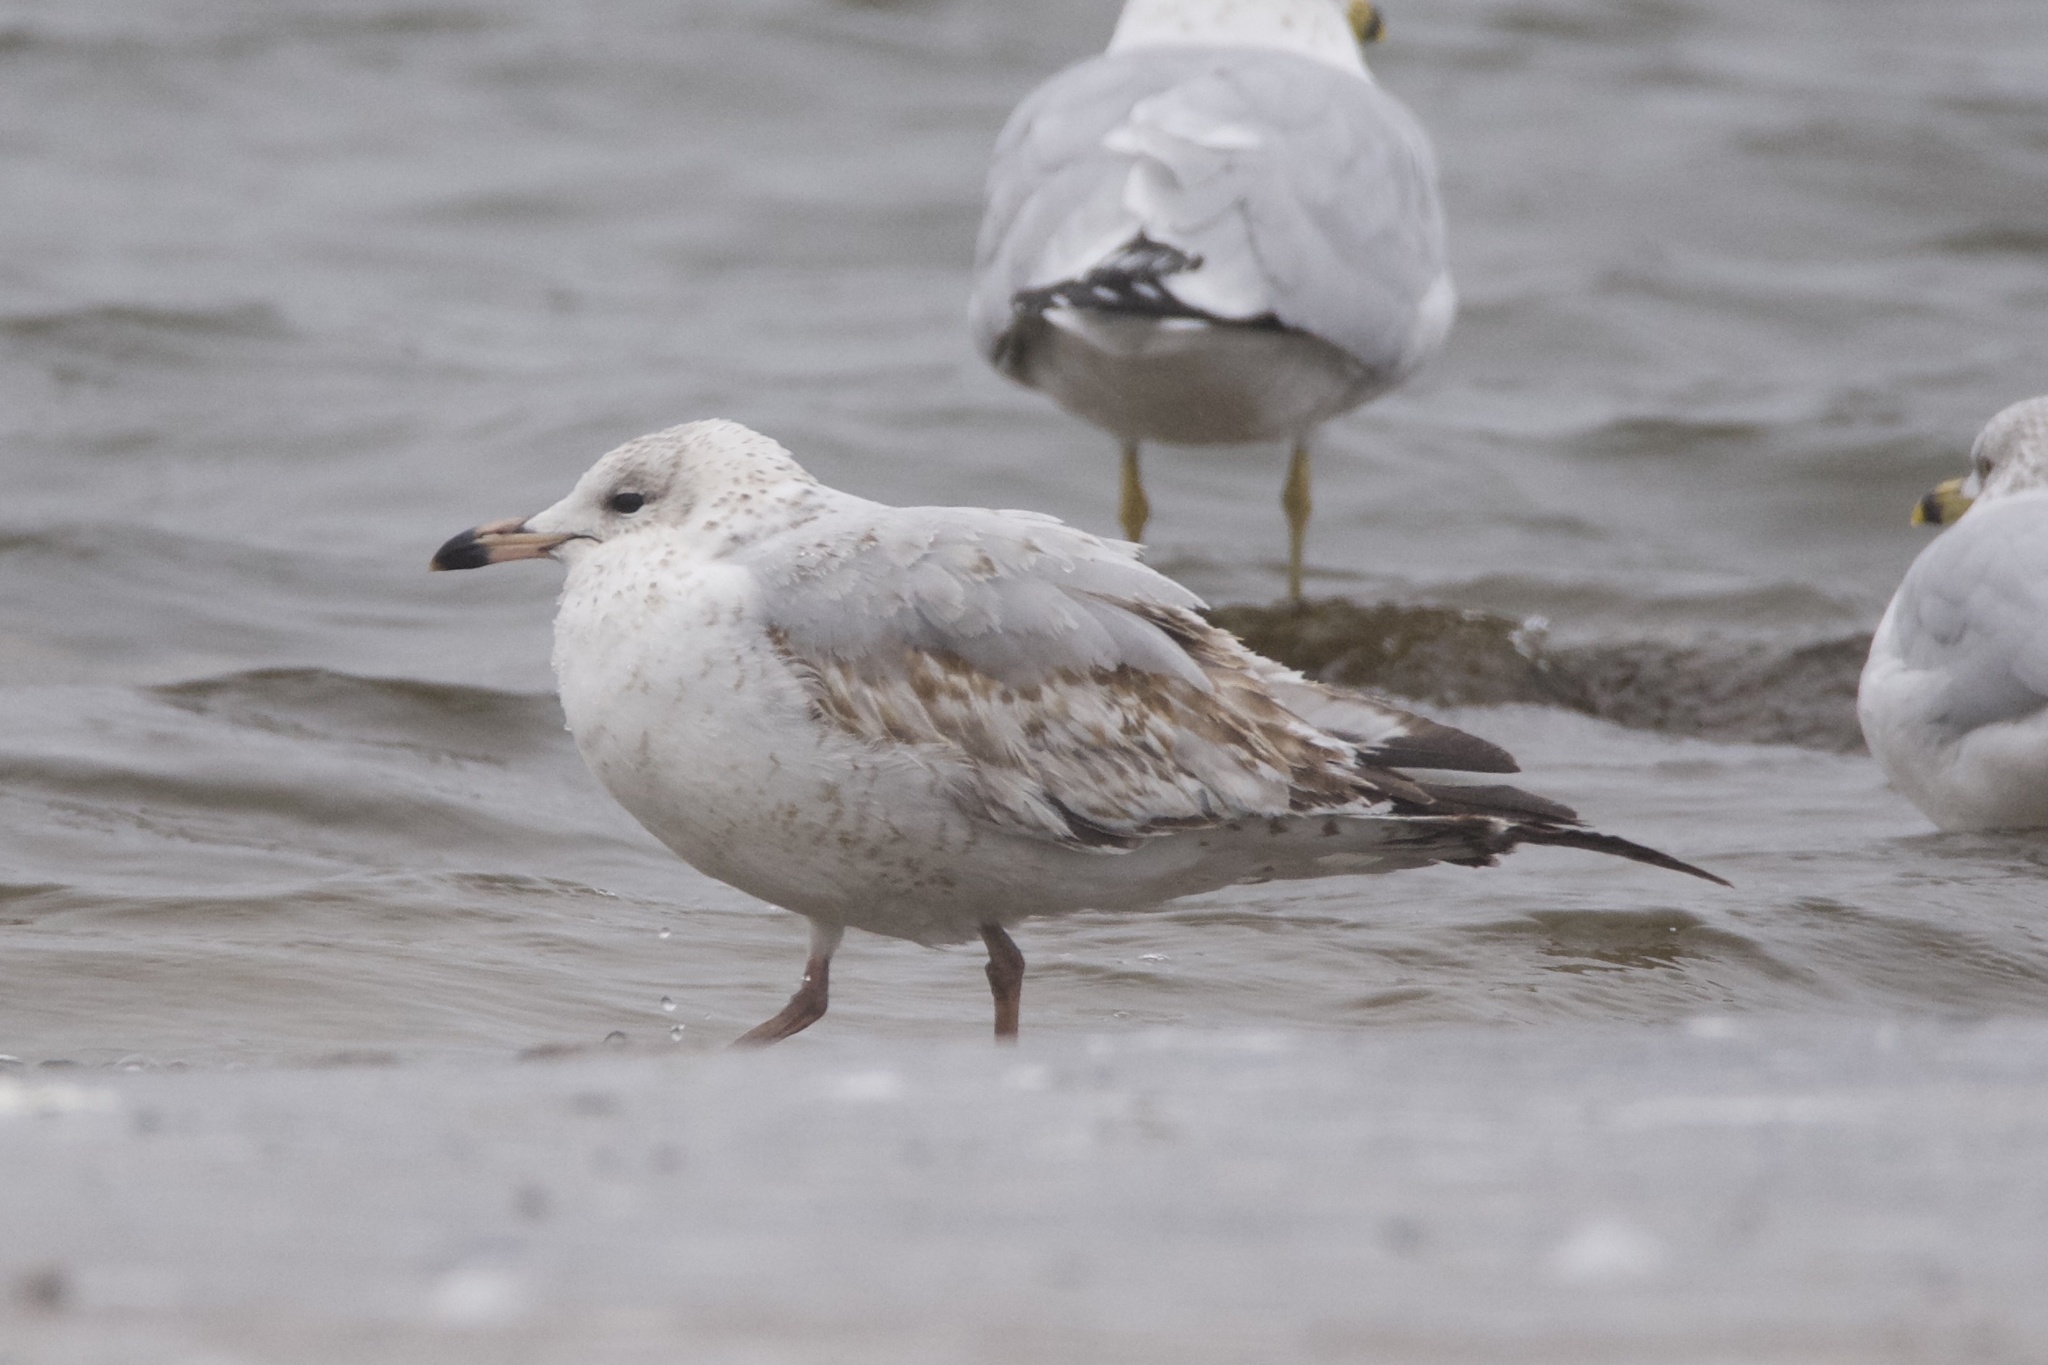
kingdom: Animalia
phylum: Chordata
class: Aves
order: Charadriiformes
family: Laridae
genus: Larus
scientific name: Larus delawarensis
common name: Ring-billed gull
